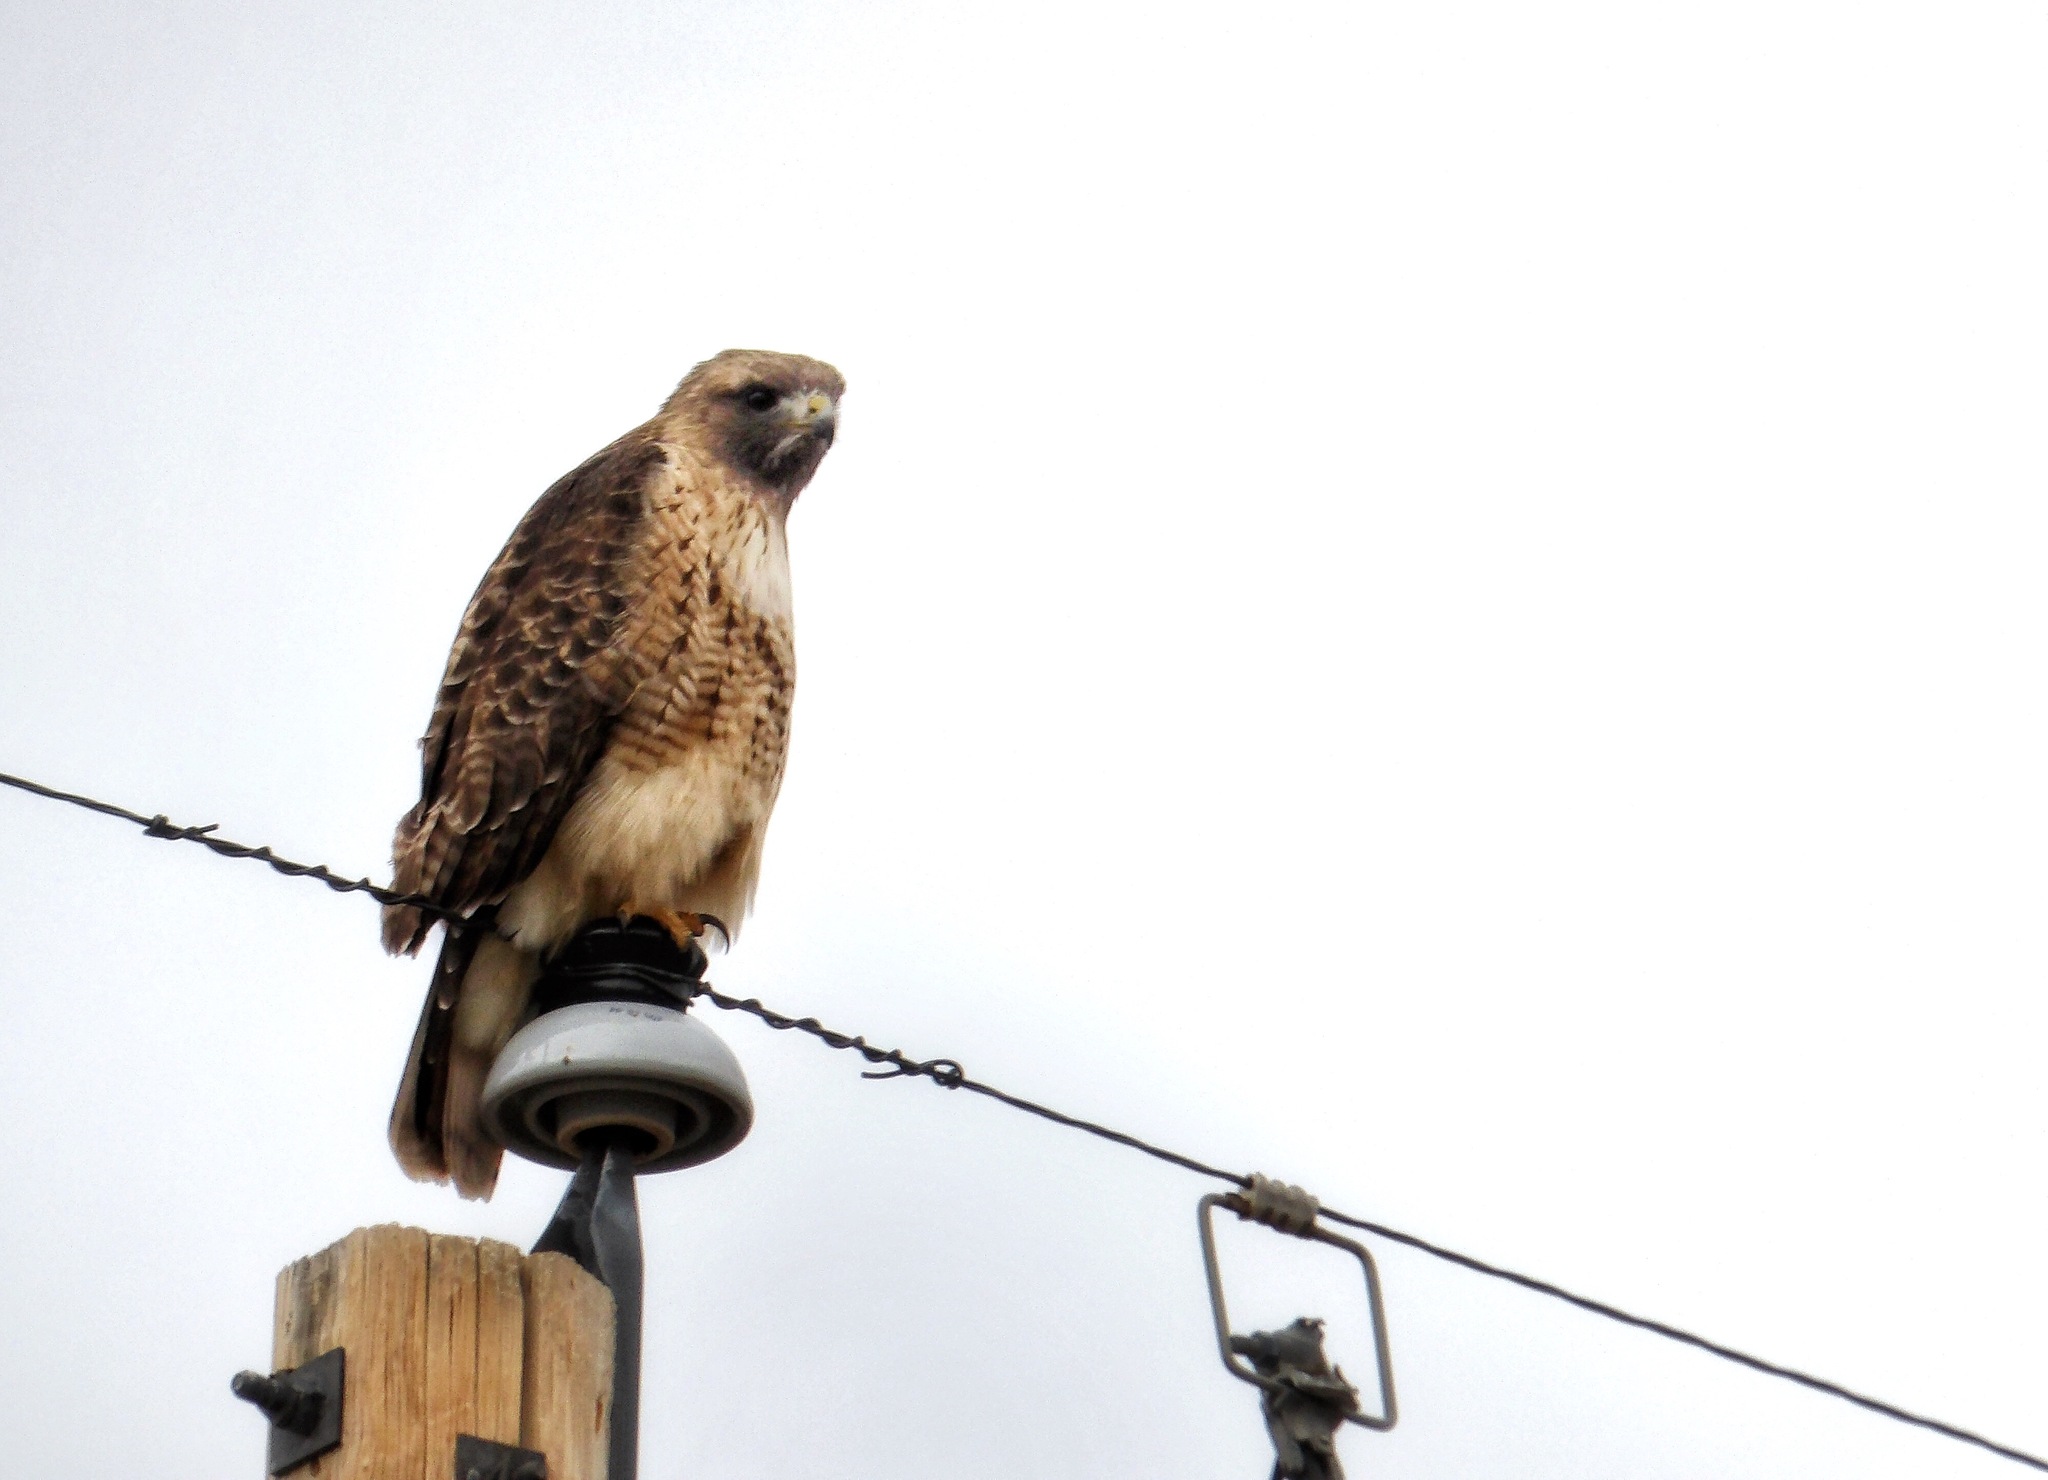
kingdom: Animalia
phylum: Chordata
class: Aves
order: Accipitriformes
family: Accipitridae
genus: Buteo
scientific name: Buteo jamaicensis
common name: Red-tailed hawk
